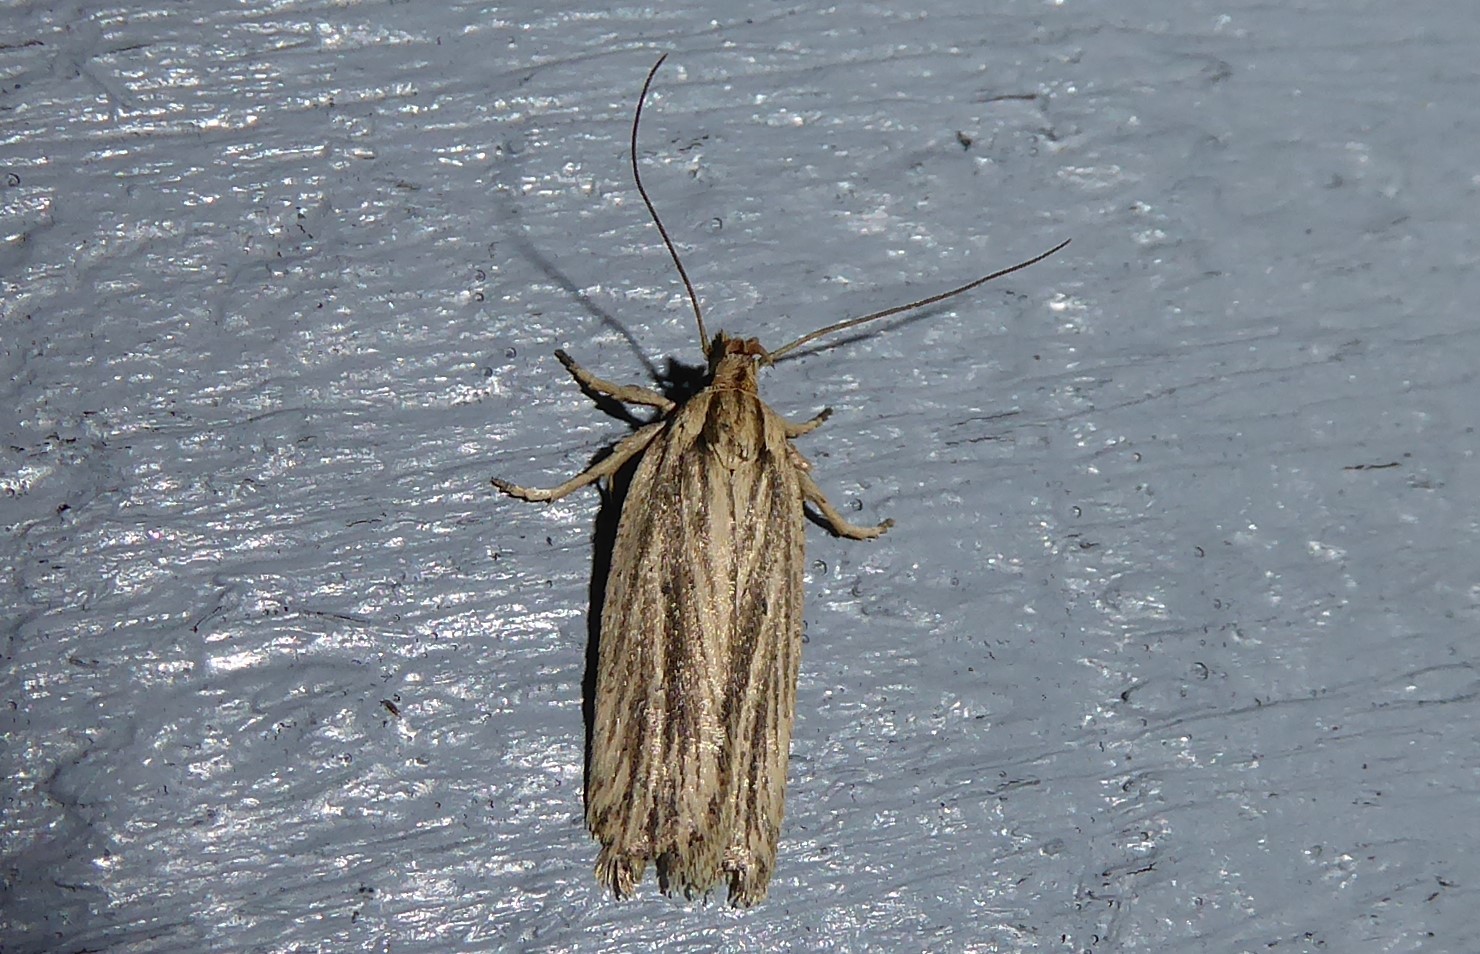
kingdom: Animalia
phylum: Arthropoda
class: Insecta
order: Lepidoptera
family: Depressariidae
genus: Agonopterix
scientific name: Agonopterix
